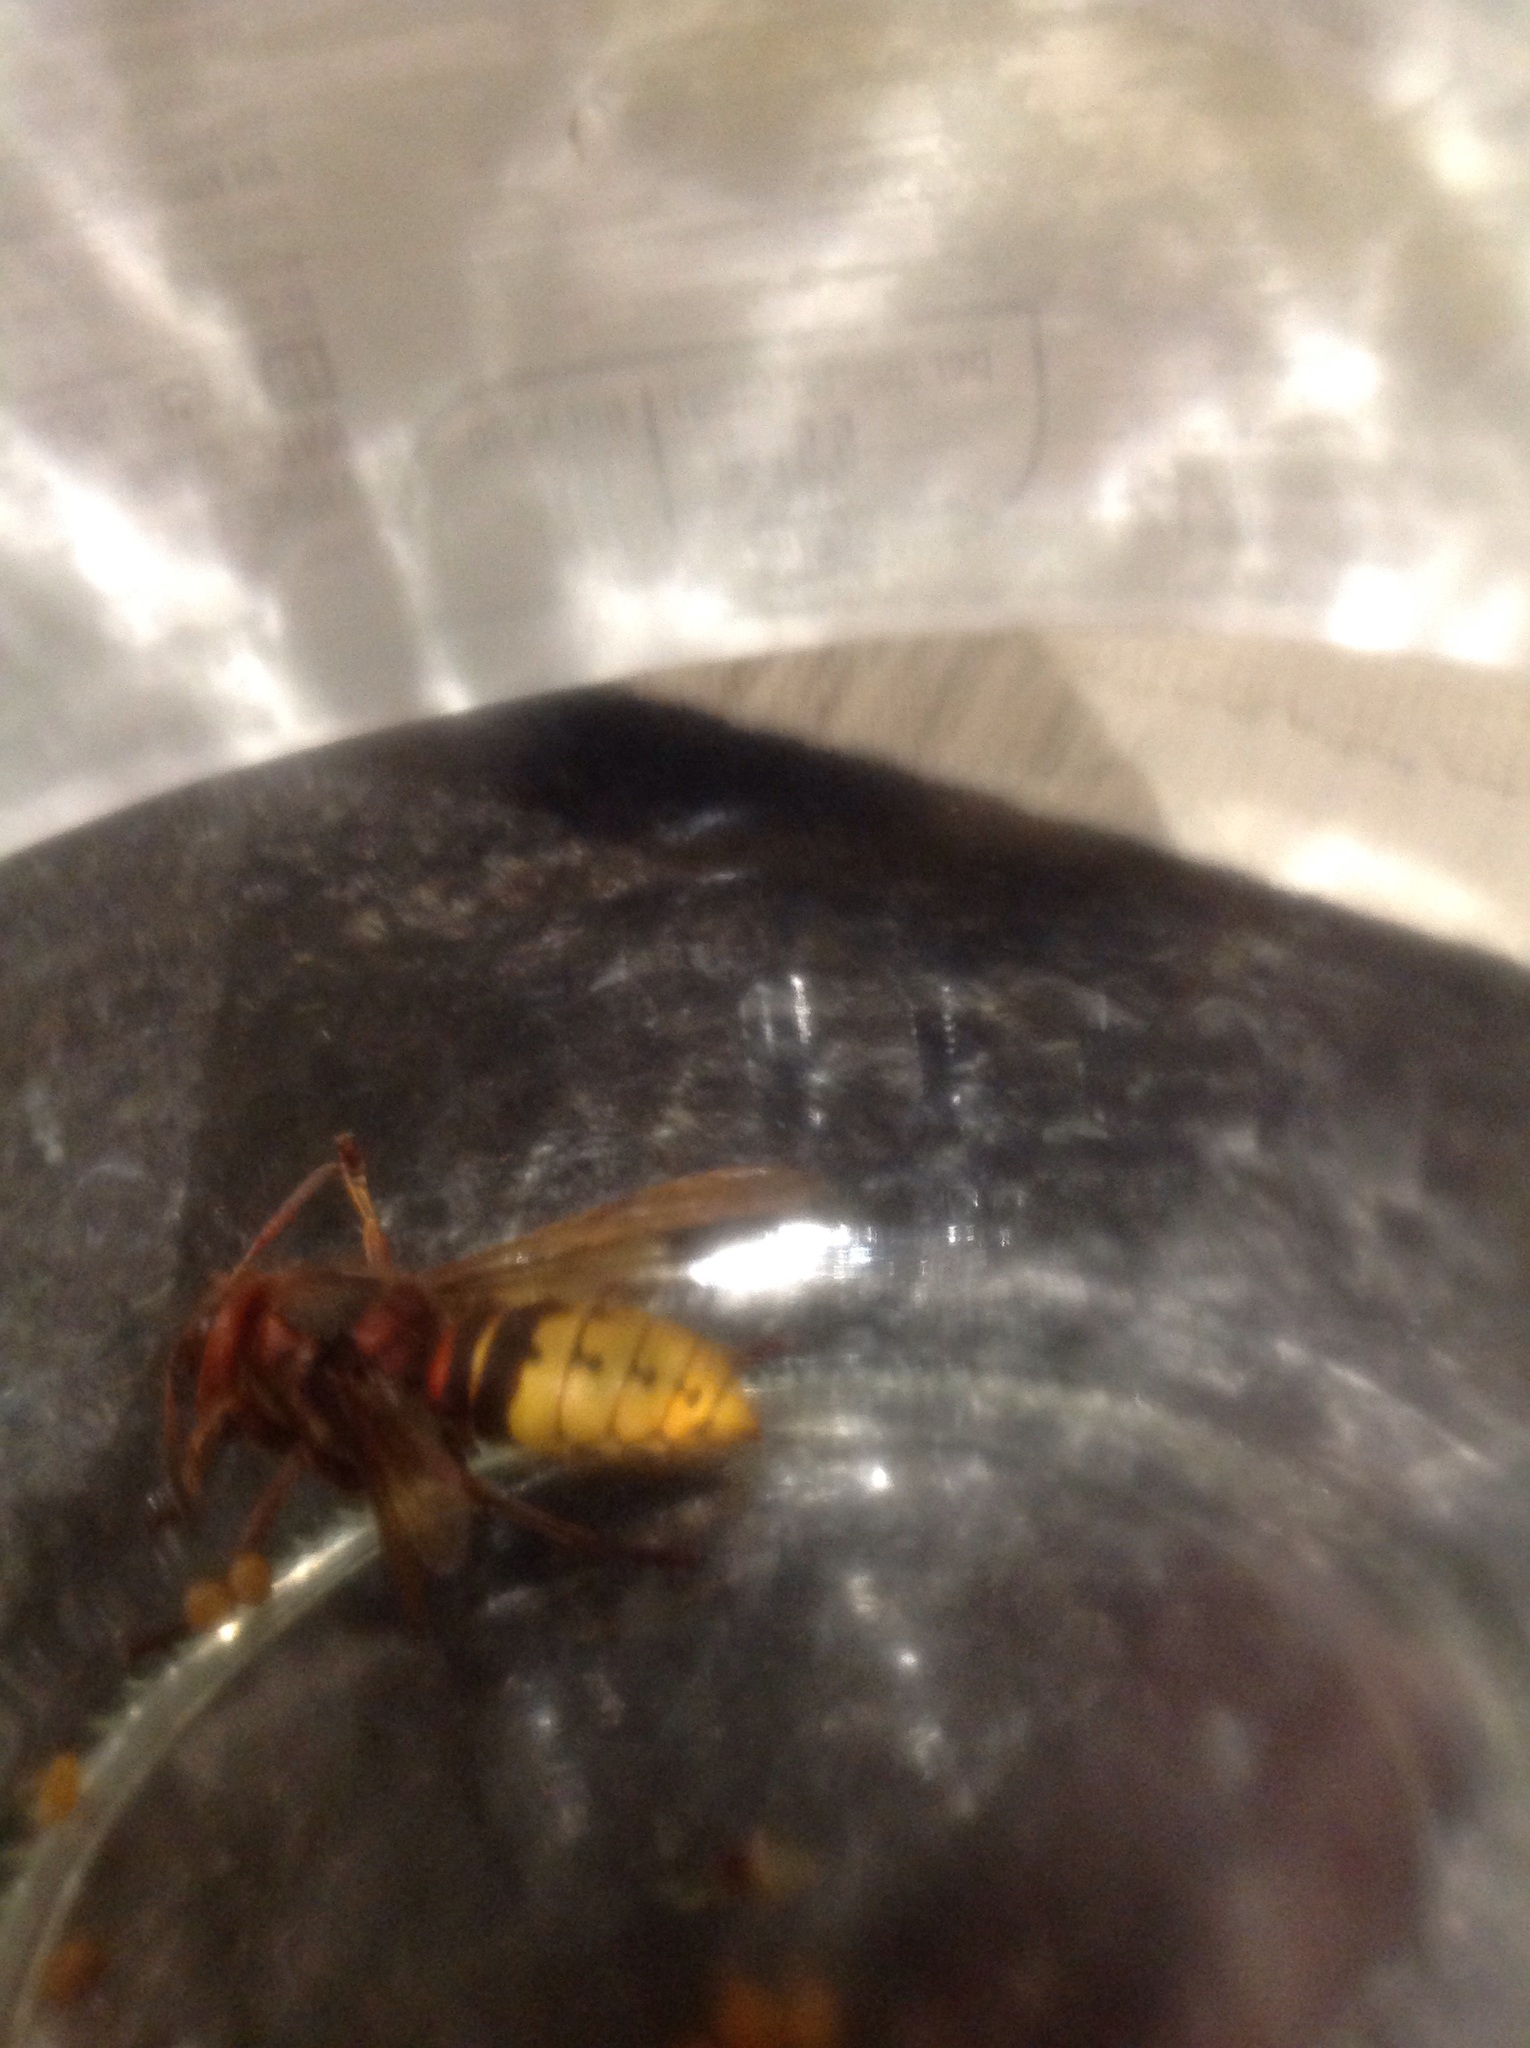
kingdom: Animalia
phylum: Arthropoda
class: Insecta
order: Hymenoptera
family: Vespidae
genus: Vespa
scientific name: Vespa crabro
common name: Hornet
